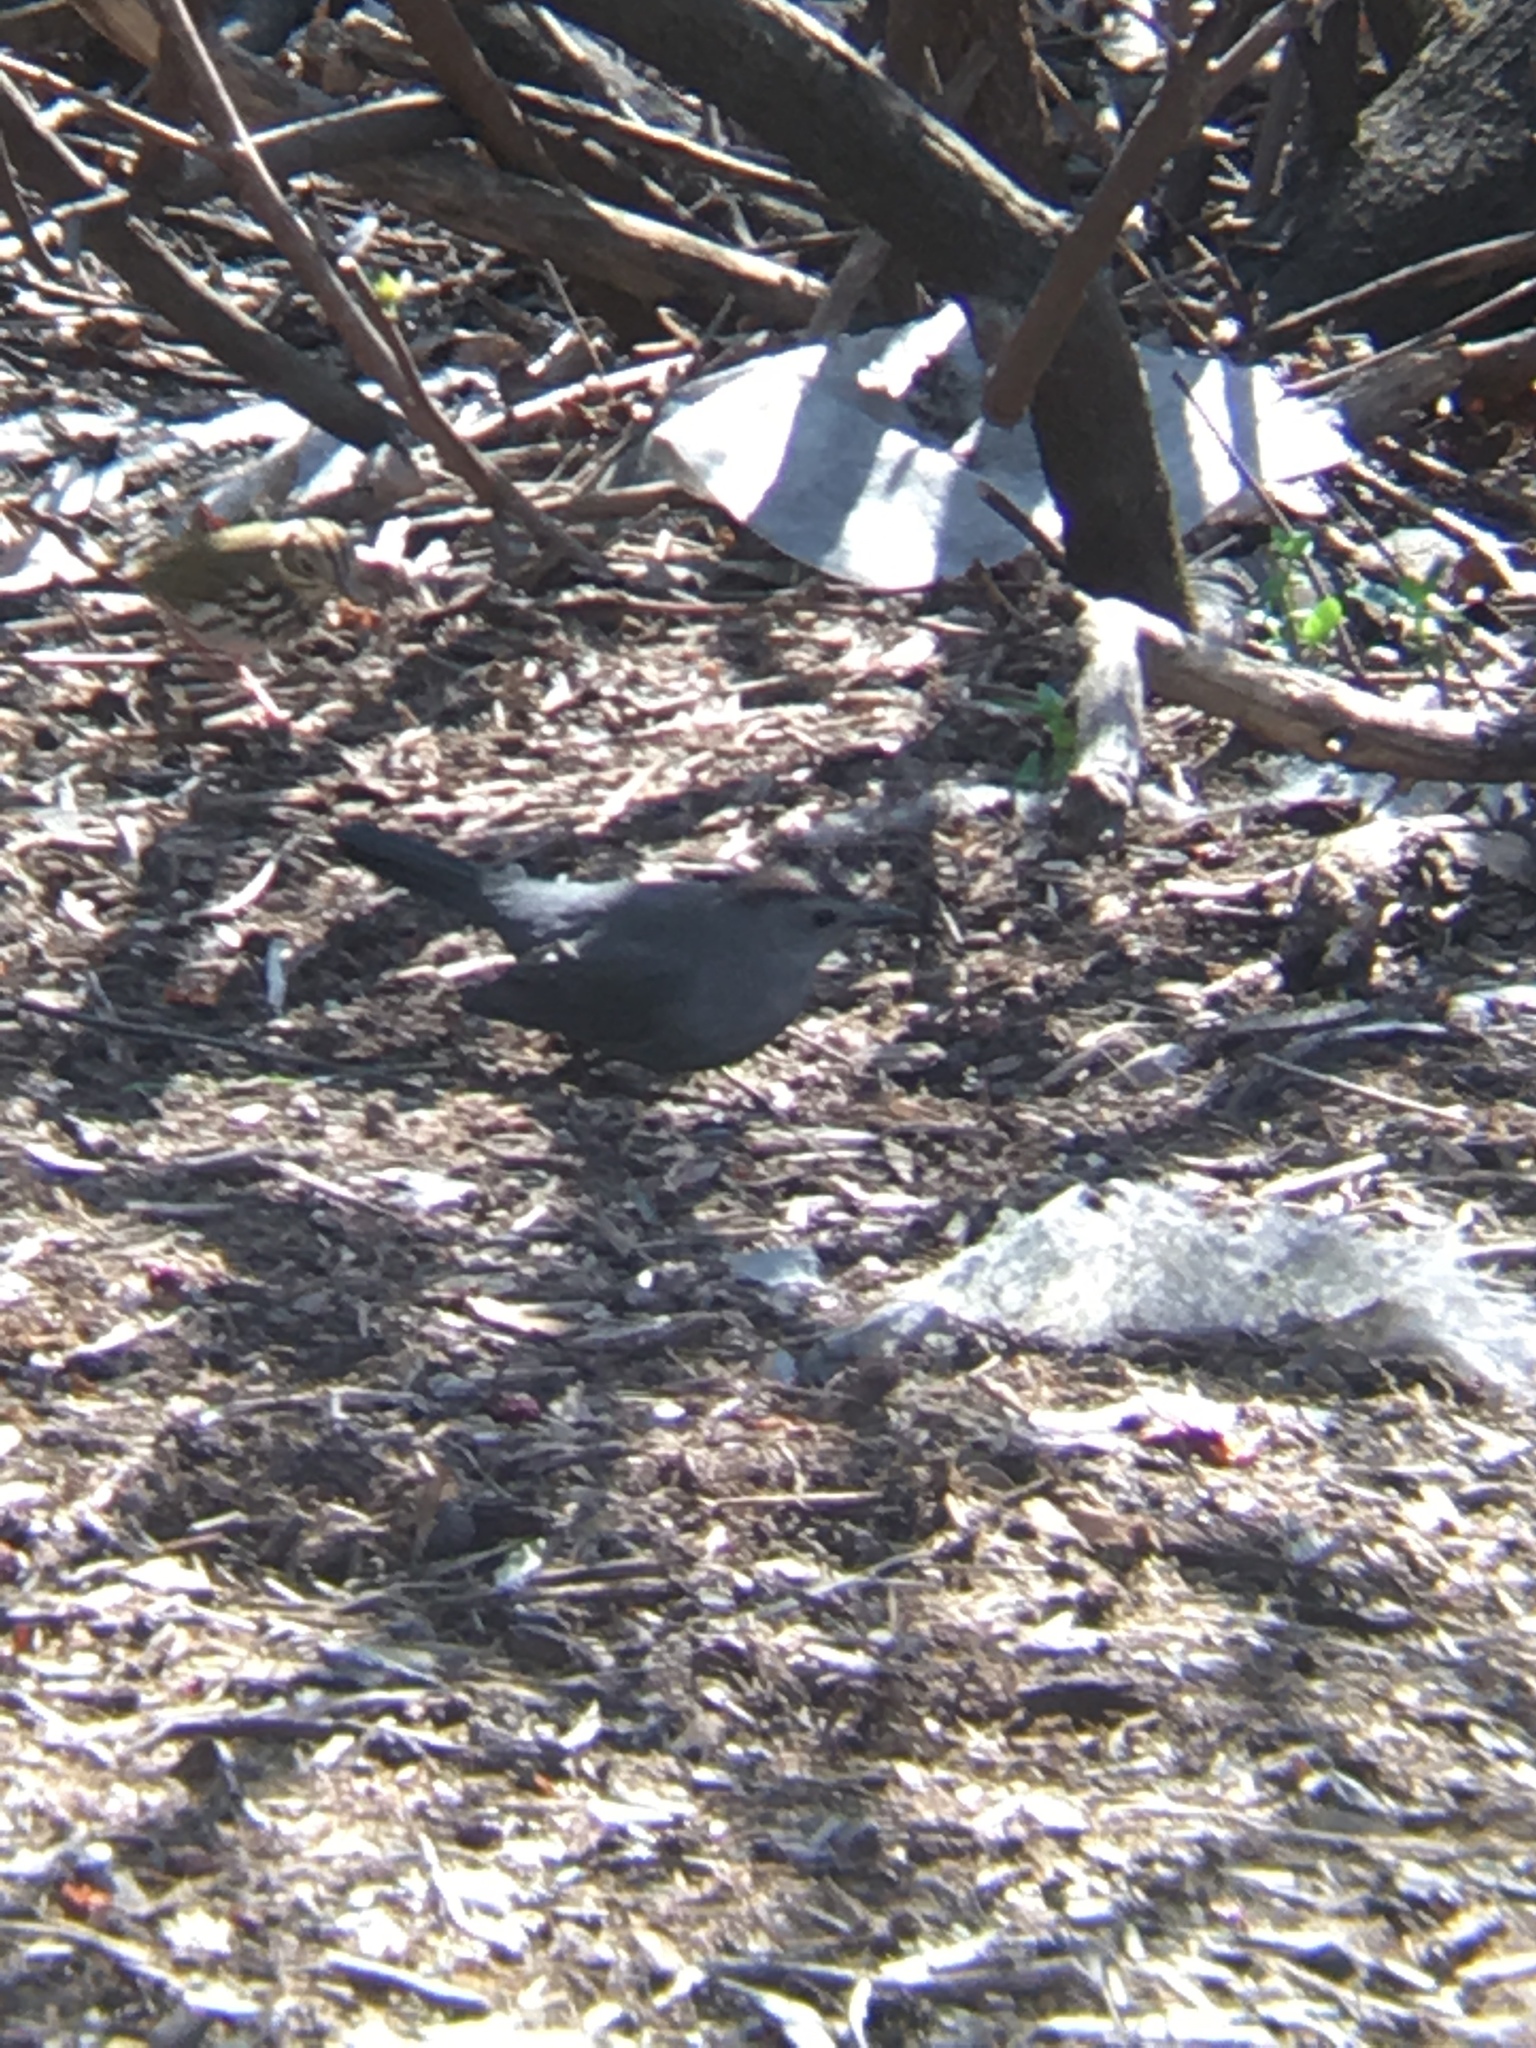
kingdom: Animalia
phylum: Chordata
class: Aves
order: Passeriformes
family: Mimidae
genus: Dumetella
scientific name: Dumetella carolinensis
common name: Gray catbird
